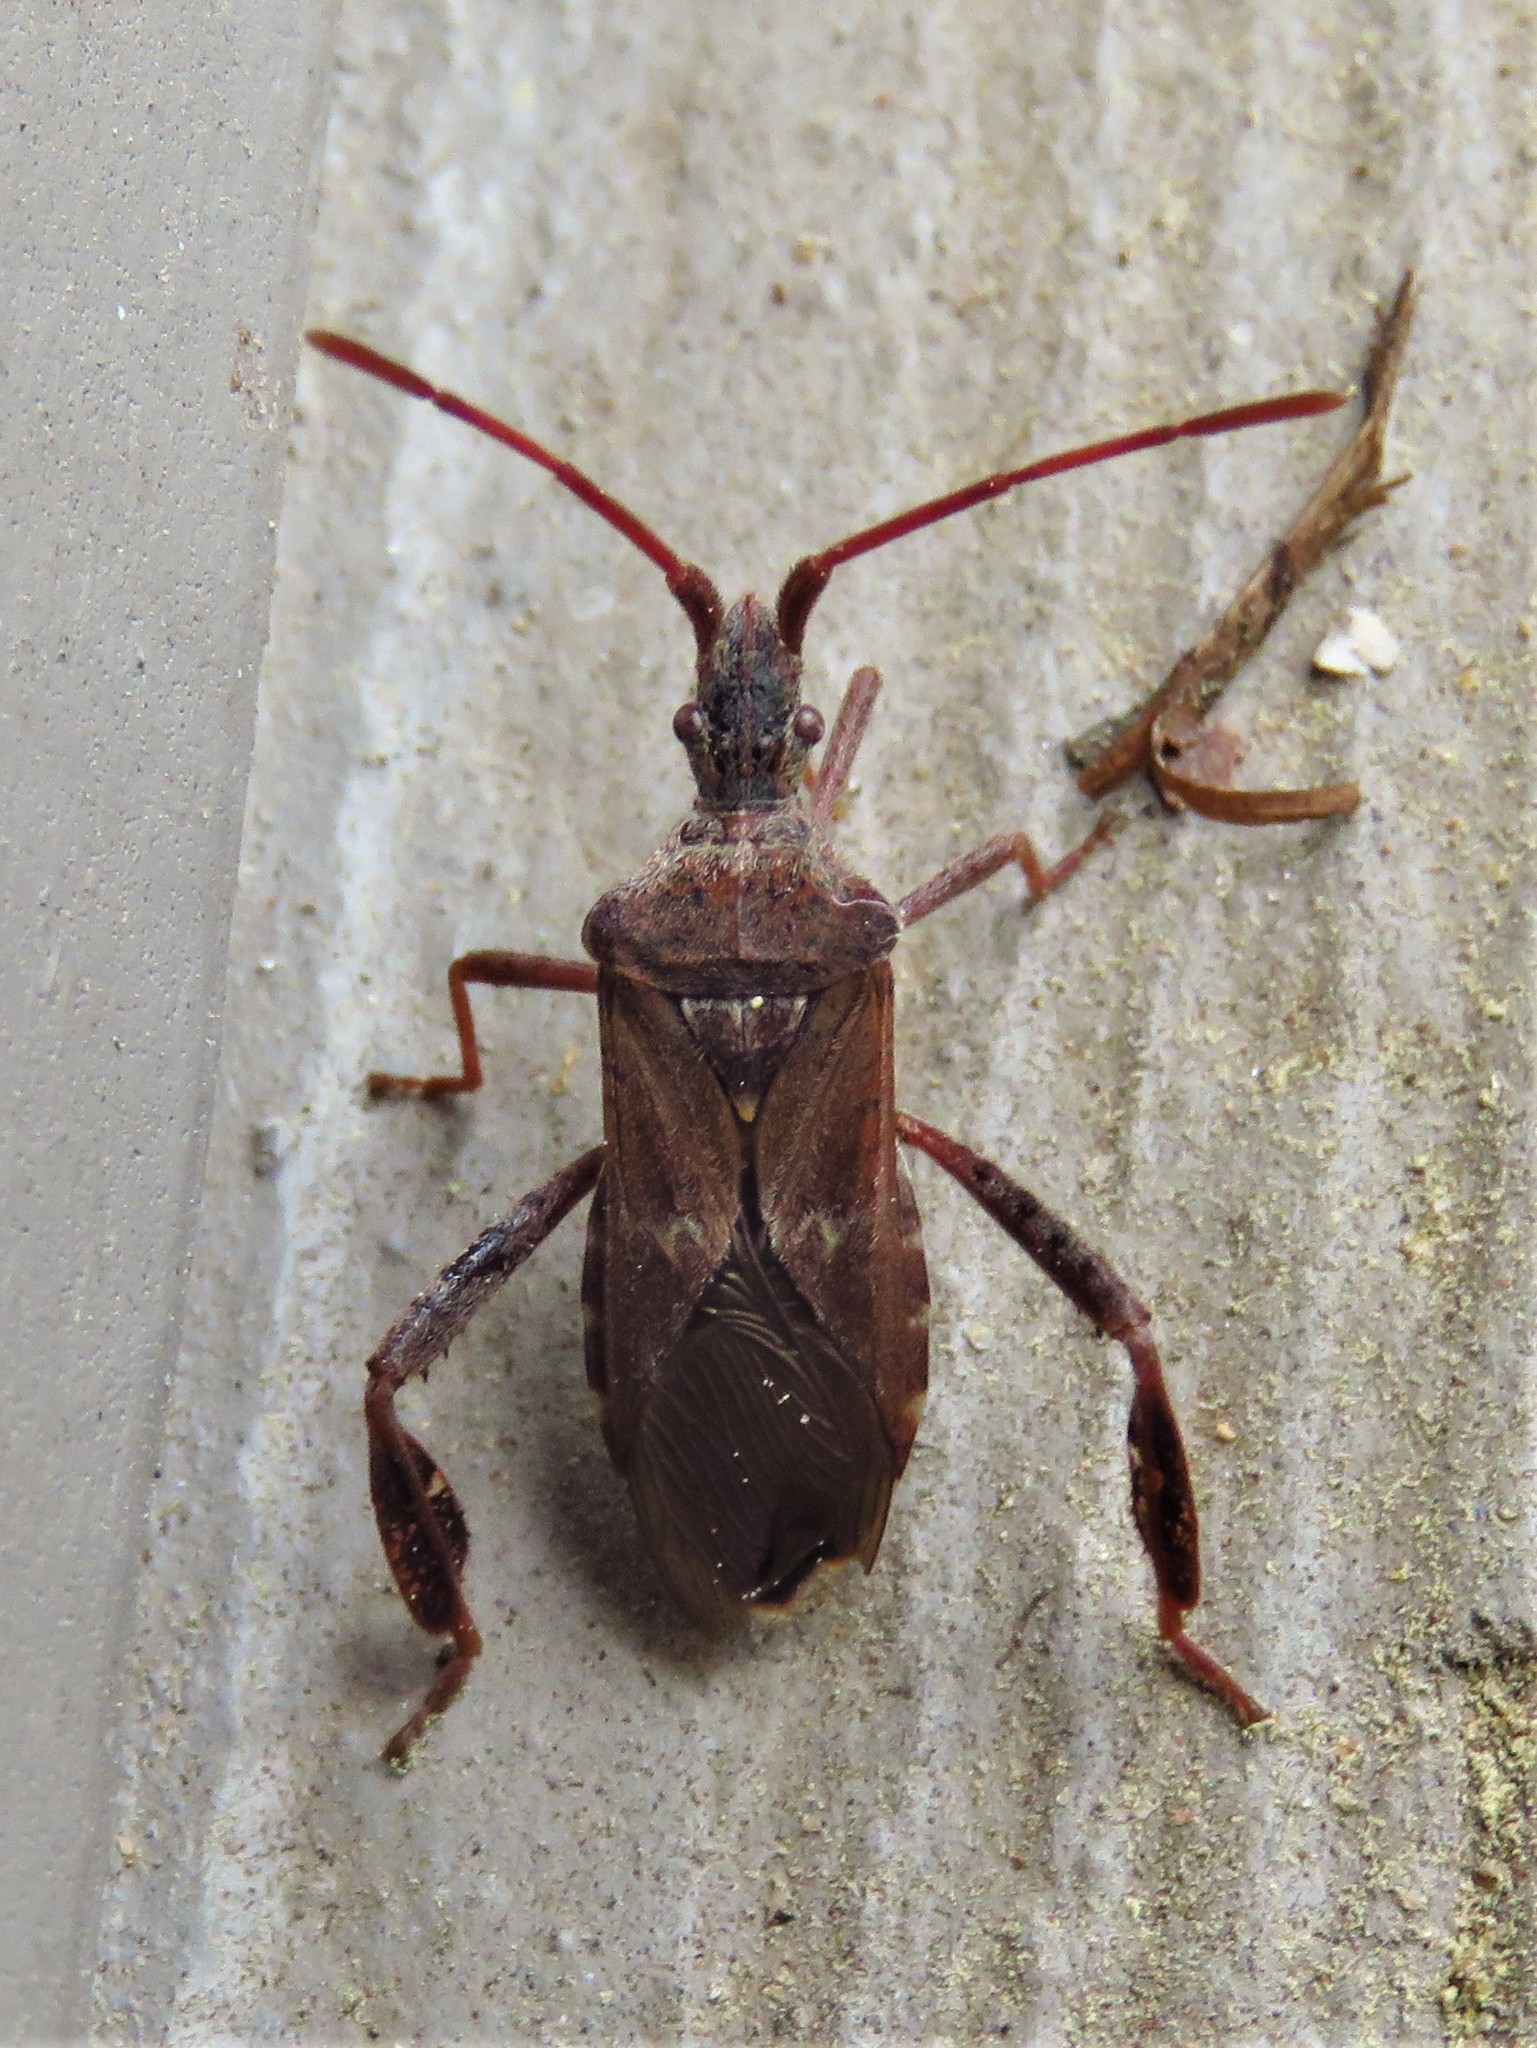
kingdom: Animalia
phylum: Arthropoda
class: Insecta
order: Hemiptera
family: Coreidae
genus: Leptoglossus
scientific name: Leptoglossus corculus
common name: Southern pine seed bug
